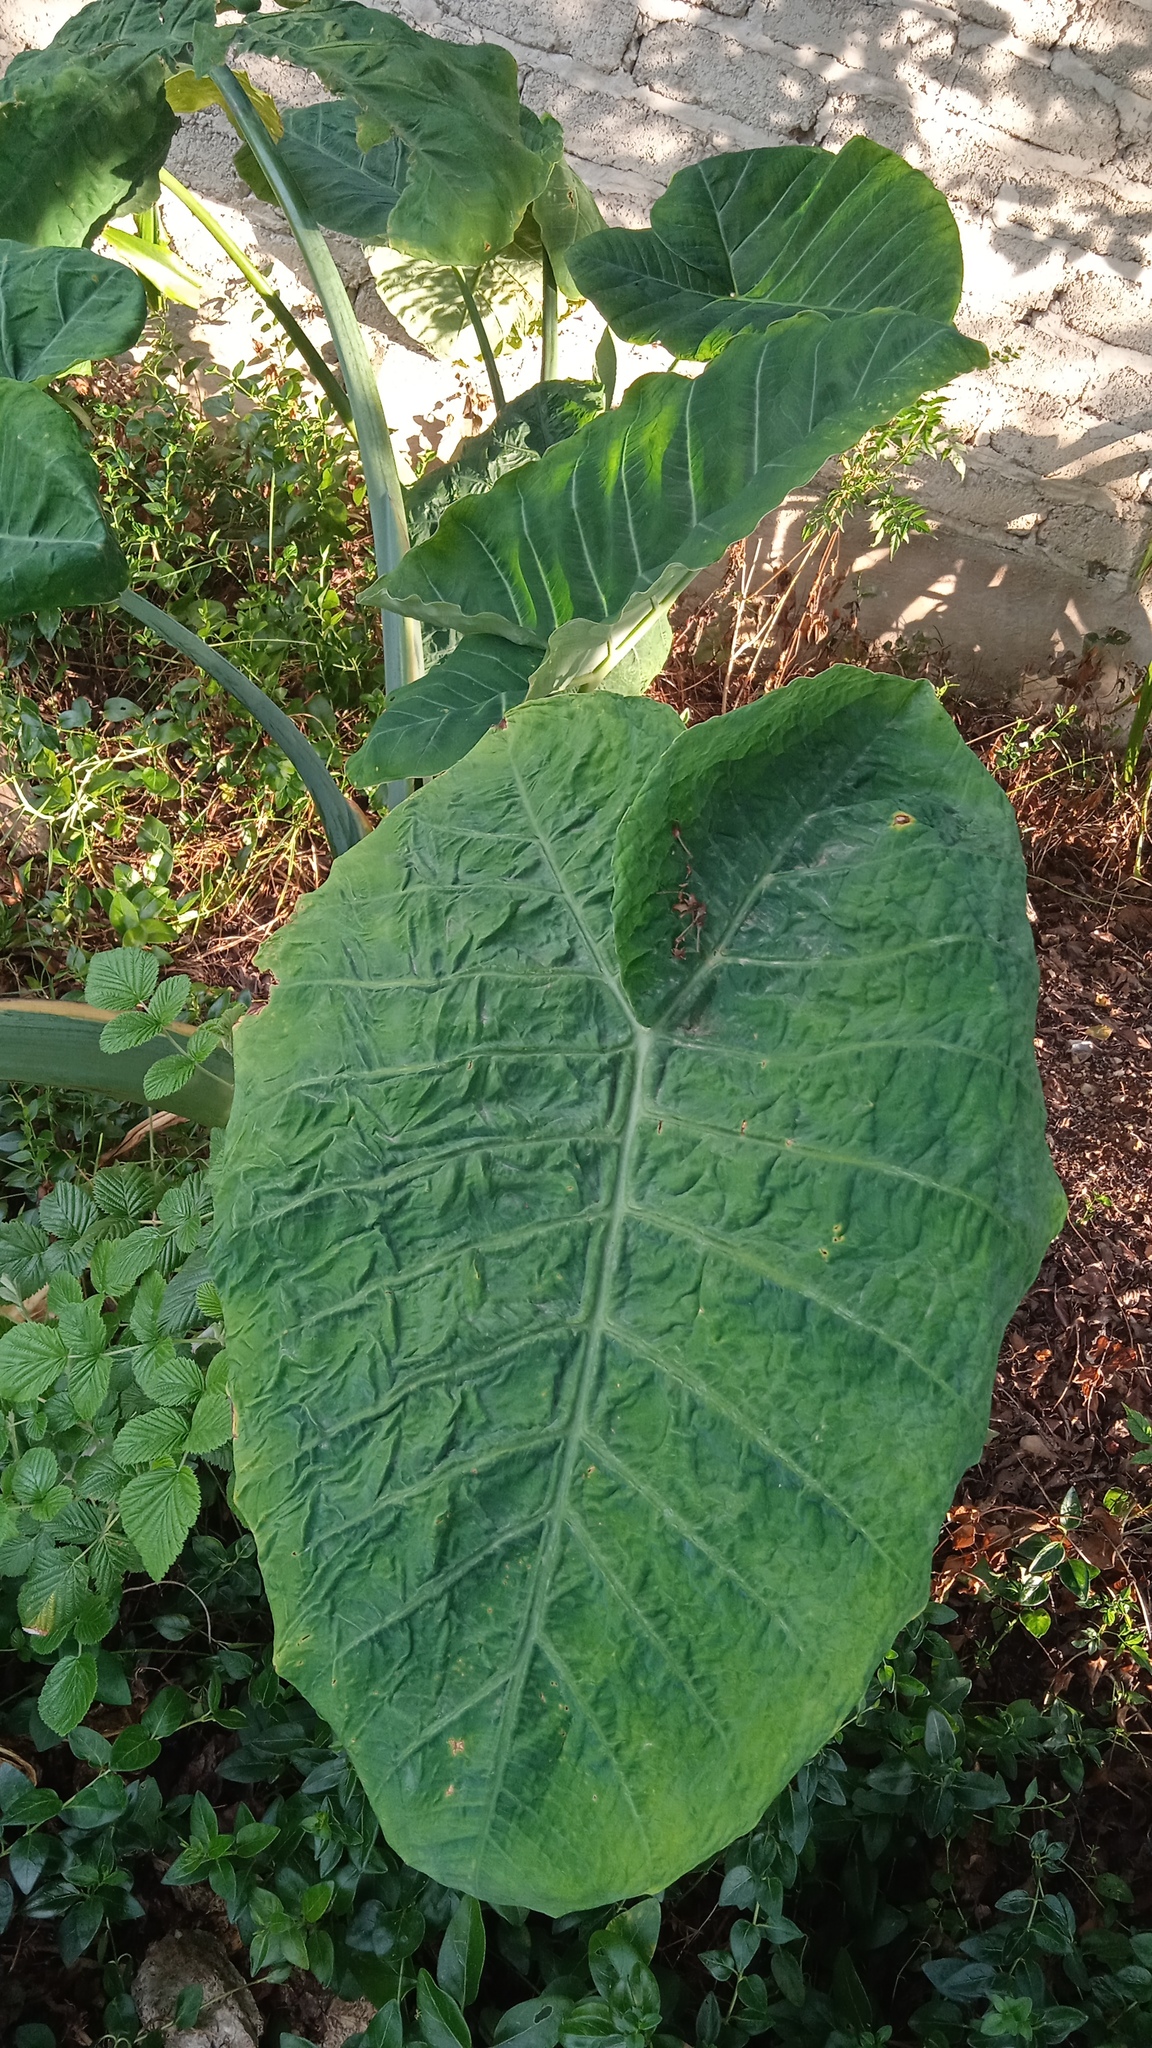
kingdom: Plantae
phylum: Tracheophyta
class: Liliopsida
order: Alismatales
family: Araceae
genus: Xanthosoma
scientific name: Xanthosoma robustum
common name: Capote
